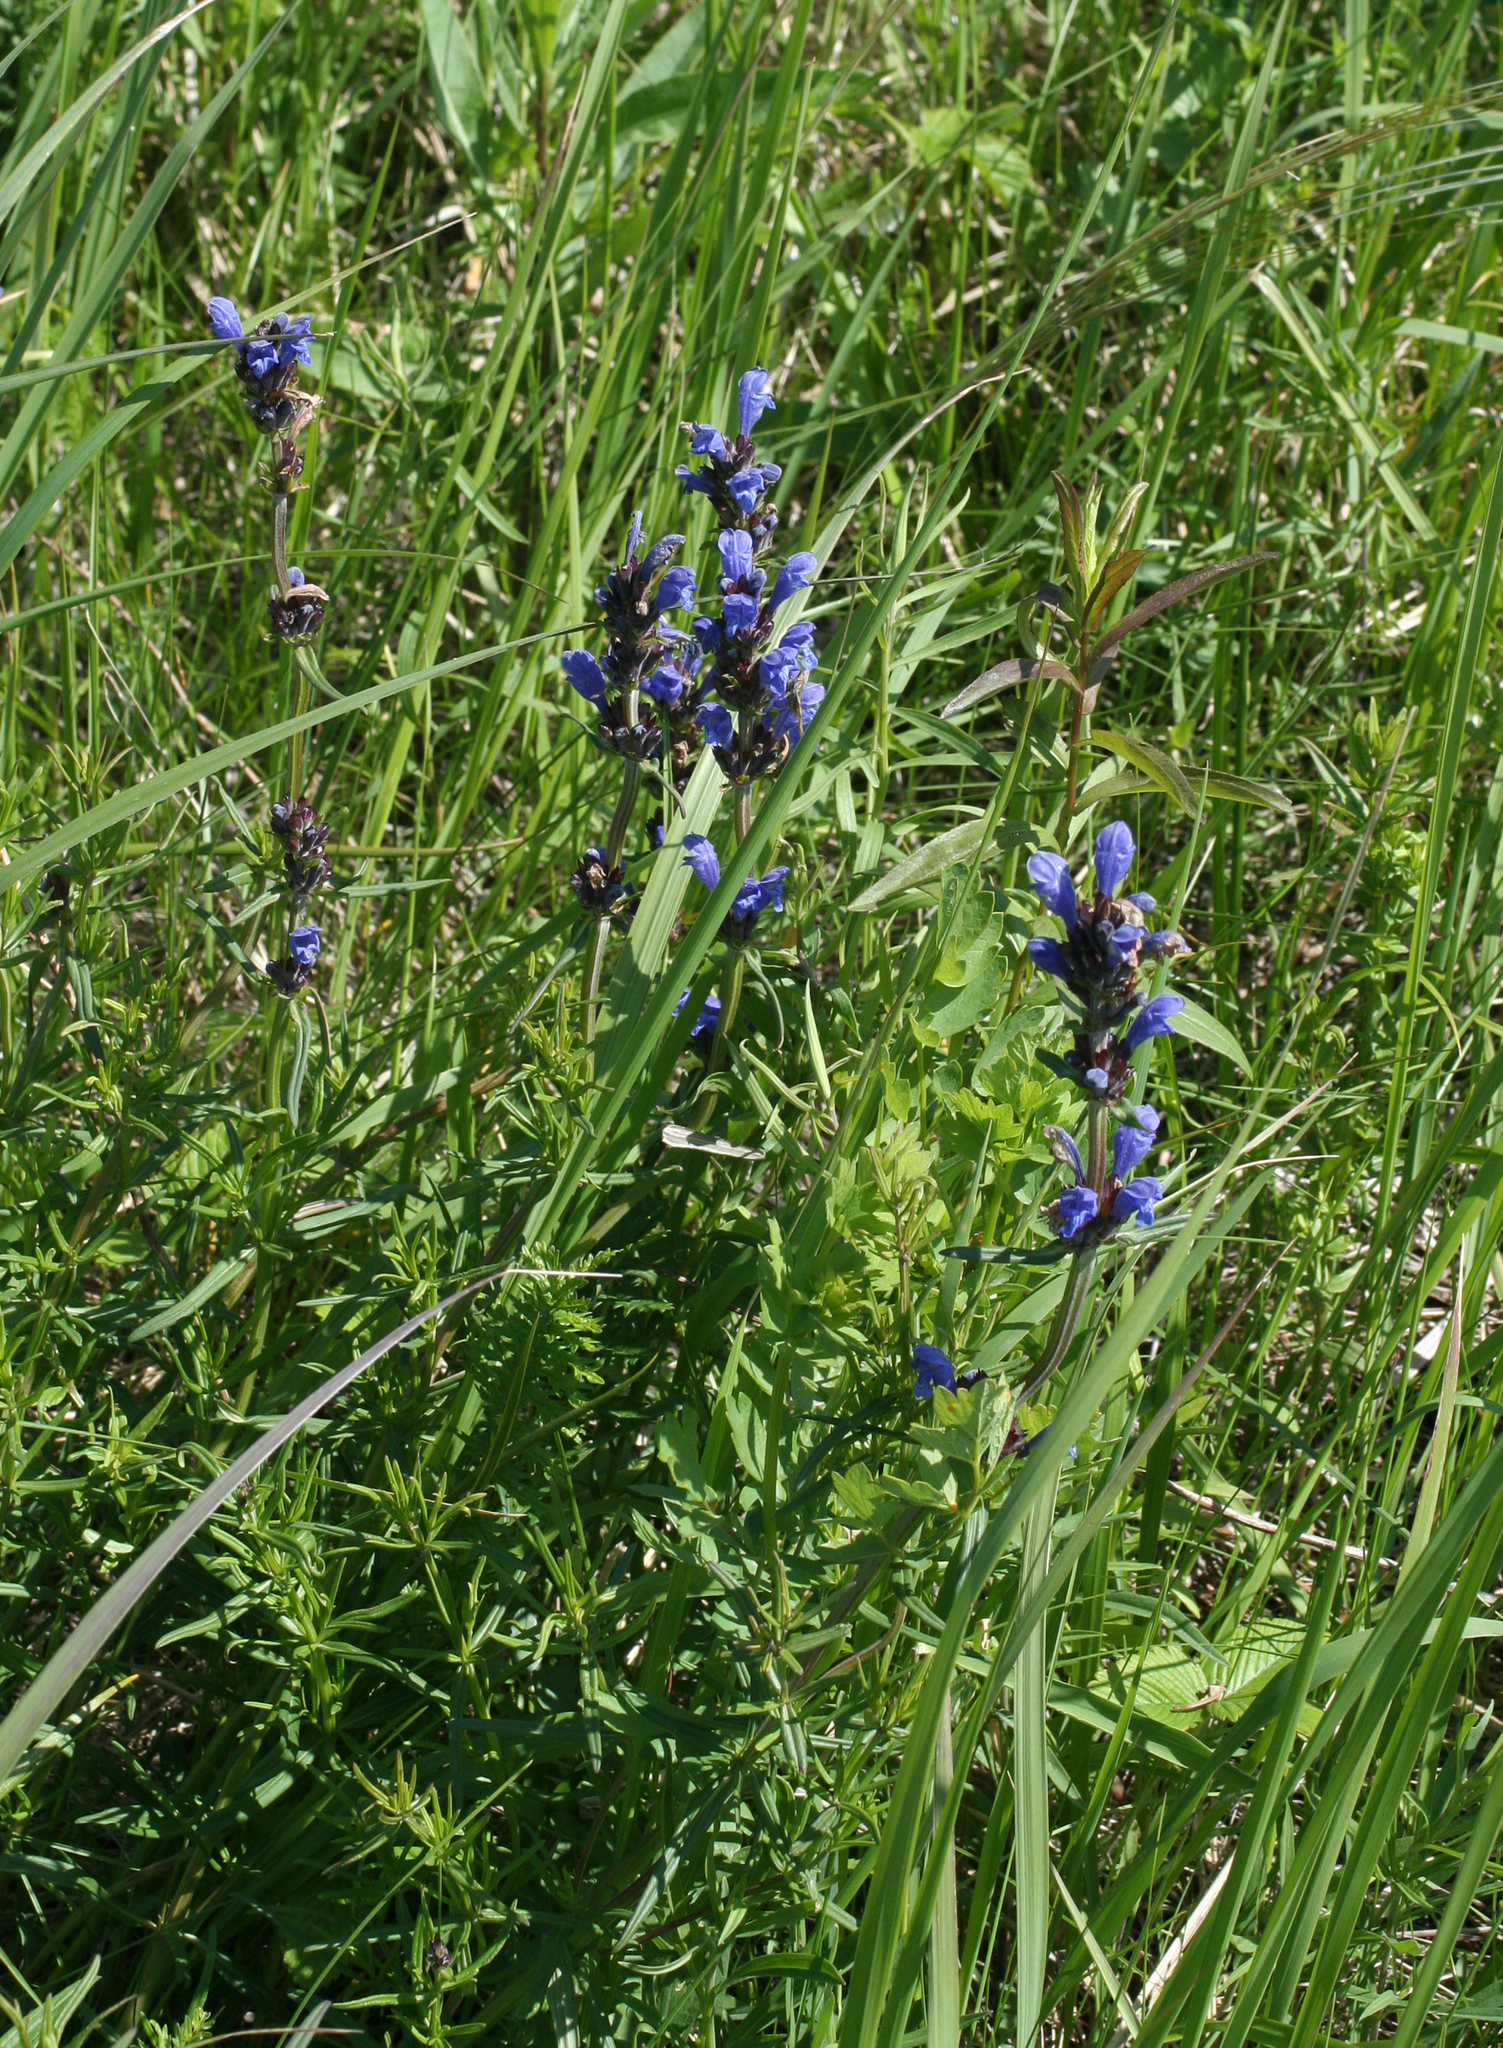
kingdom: Plantae
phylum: Tracheophyta
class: Magnoliopsida
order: Lamiales
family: Lamiaceae
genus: Dracocephalum
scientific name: Dracocephalum ruyschiana
